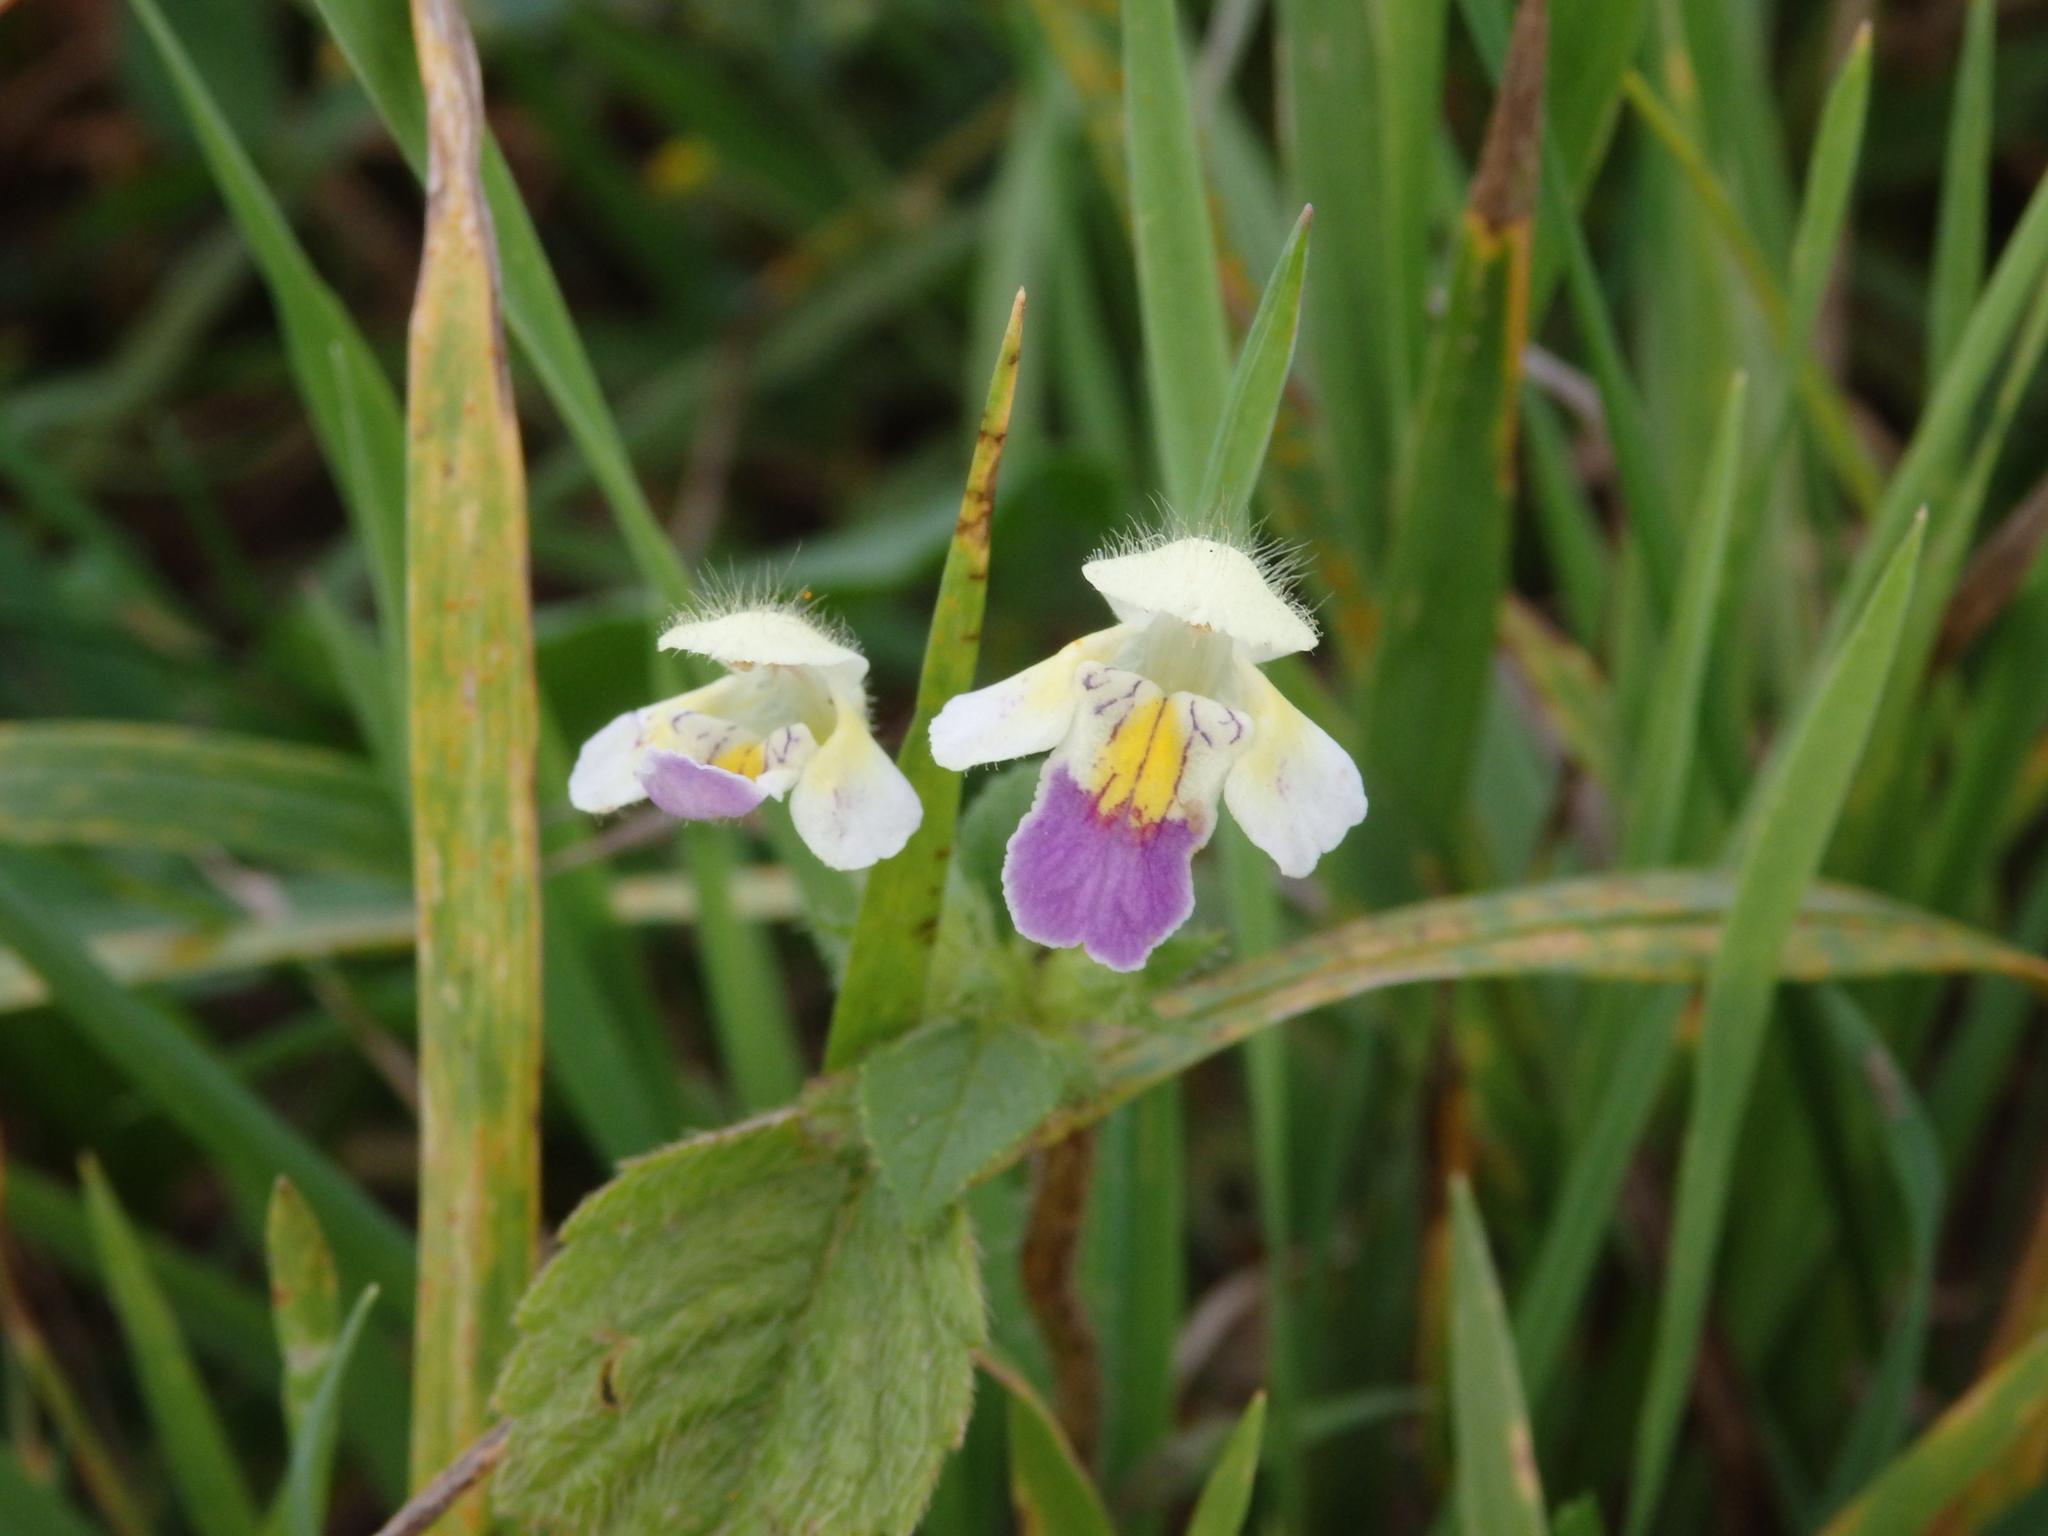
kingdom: Plantae
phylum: Tracheophyta
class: Magnoliopsida
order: Lamiales
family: Lamiaceae
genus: Galeopsis
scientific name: Galeopsis speciosa
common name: Large-flowered hemp-nettle
